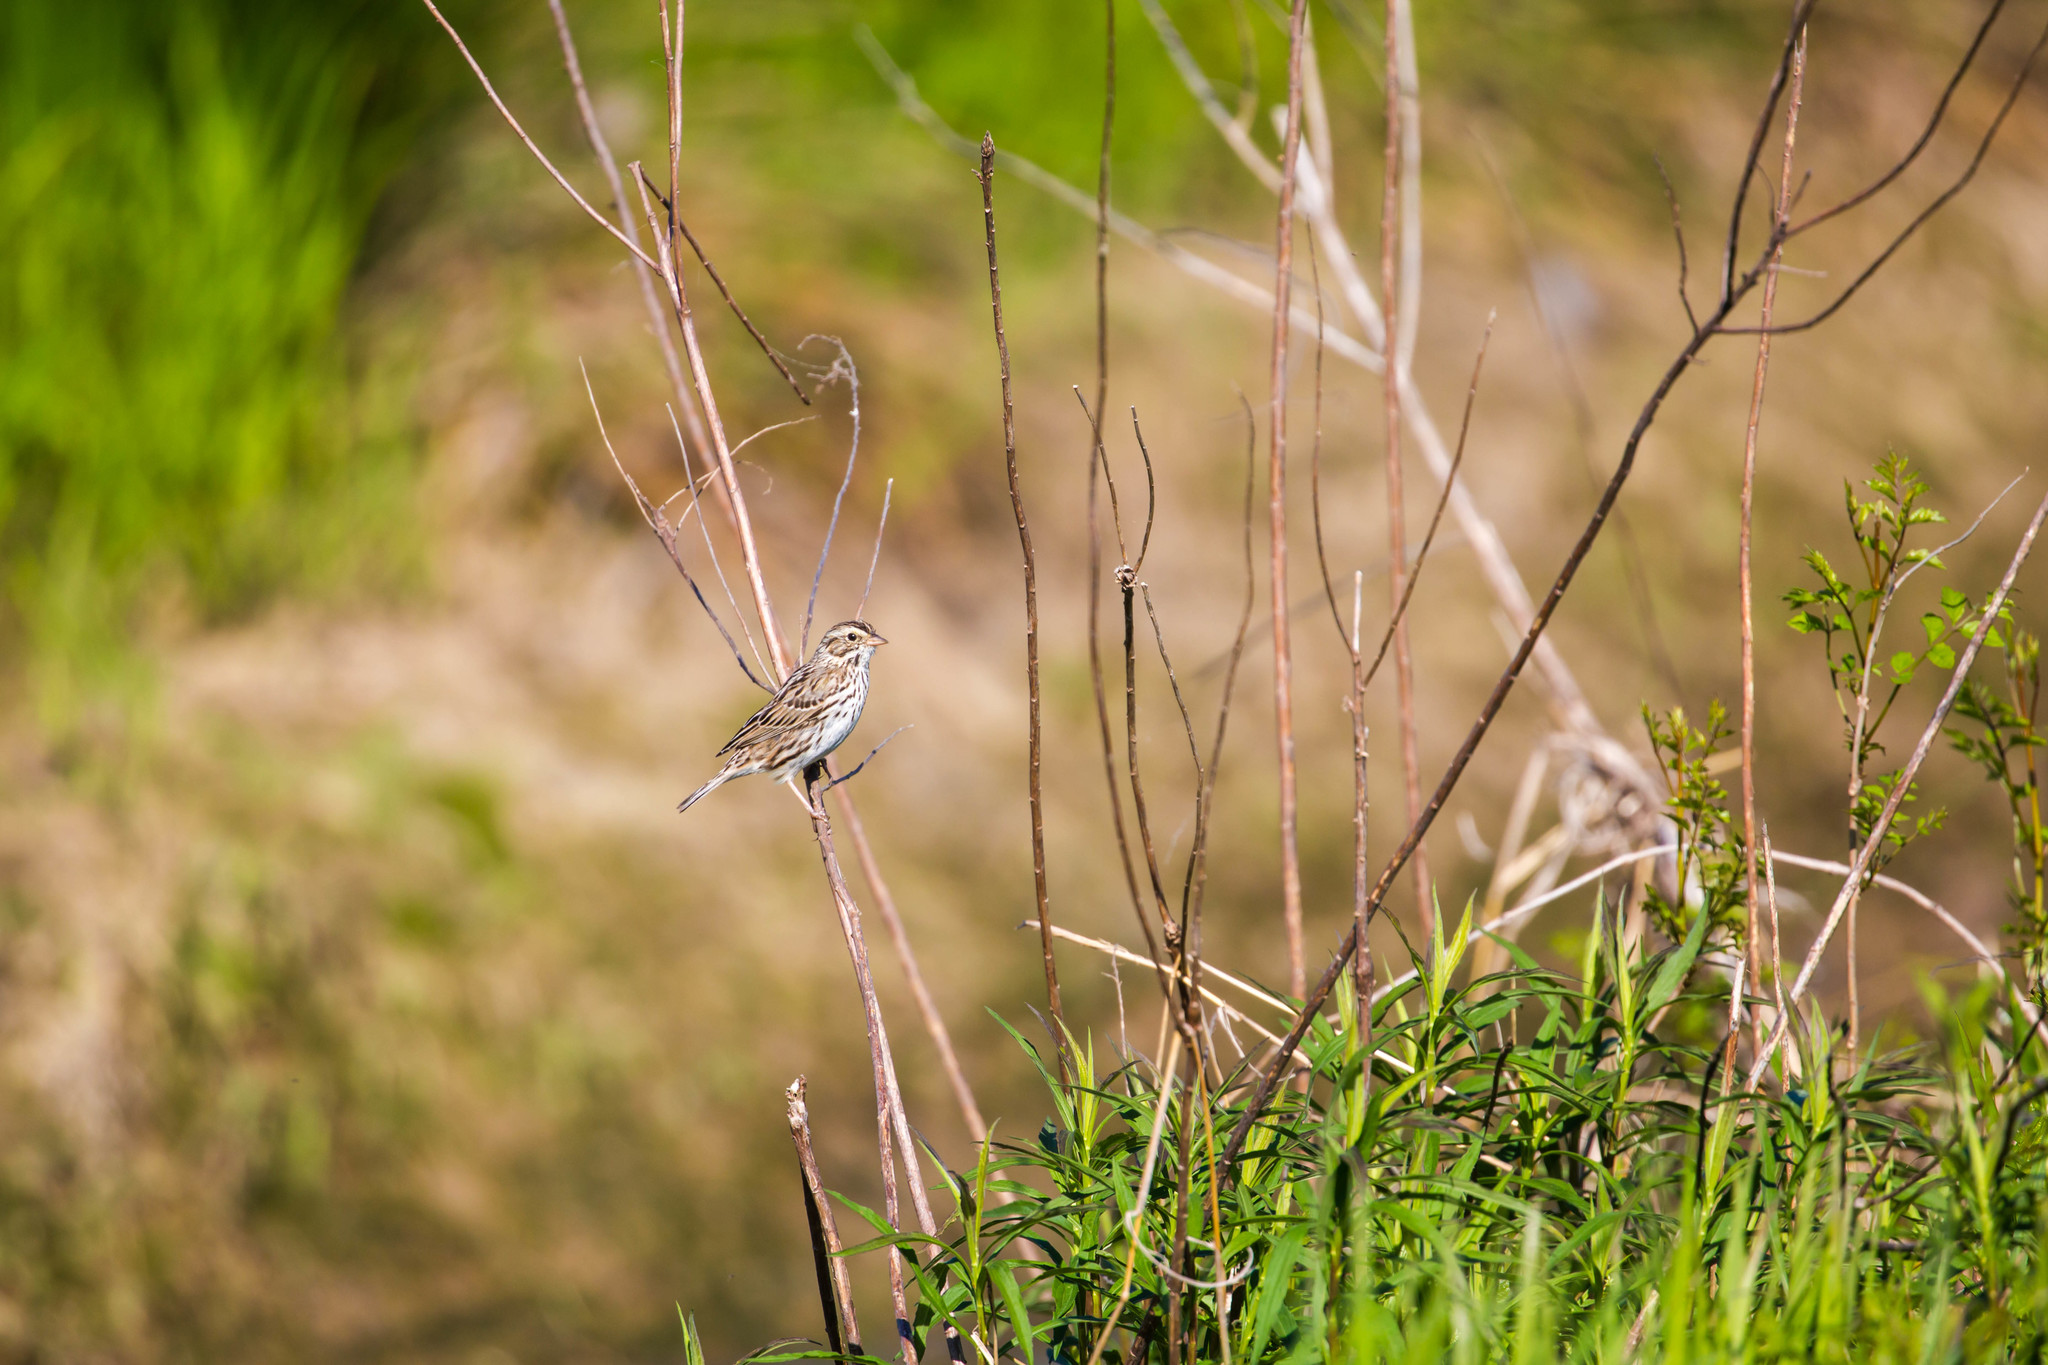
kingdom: Animalia
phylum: Chordata
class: Aves
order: Passeriformes
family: Passerellidae
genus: Passerculus
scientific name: Passerculus sandwichensis
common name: Savannah sparrow
